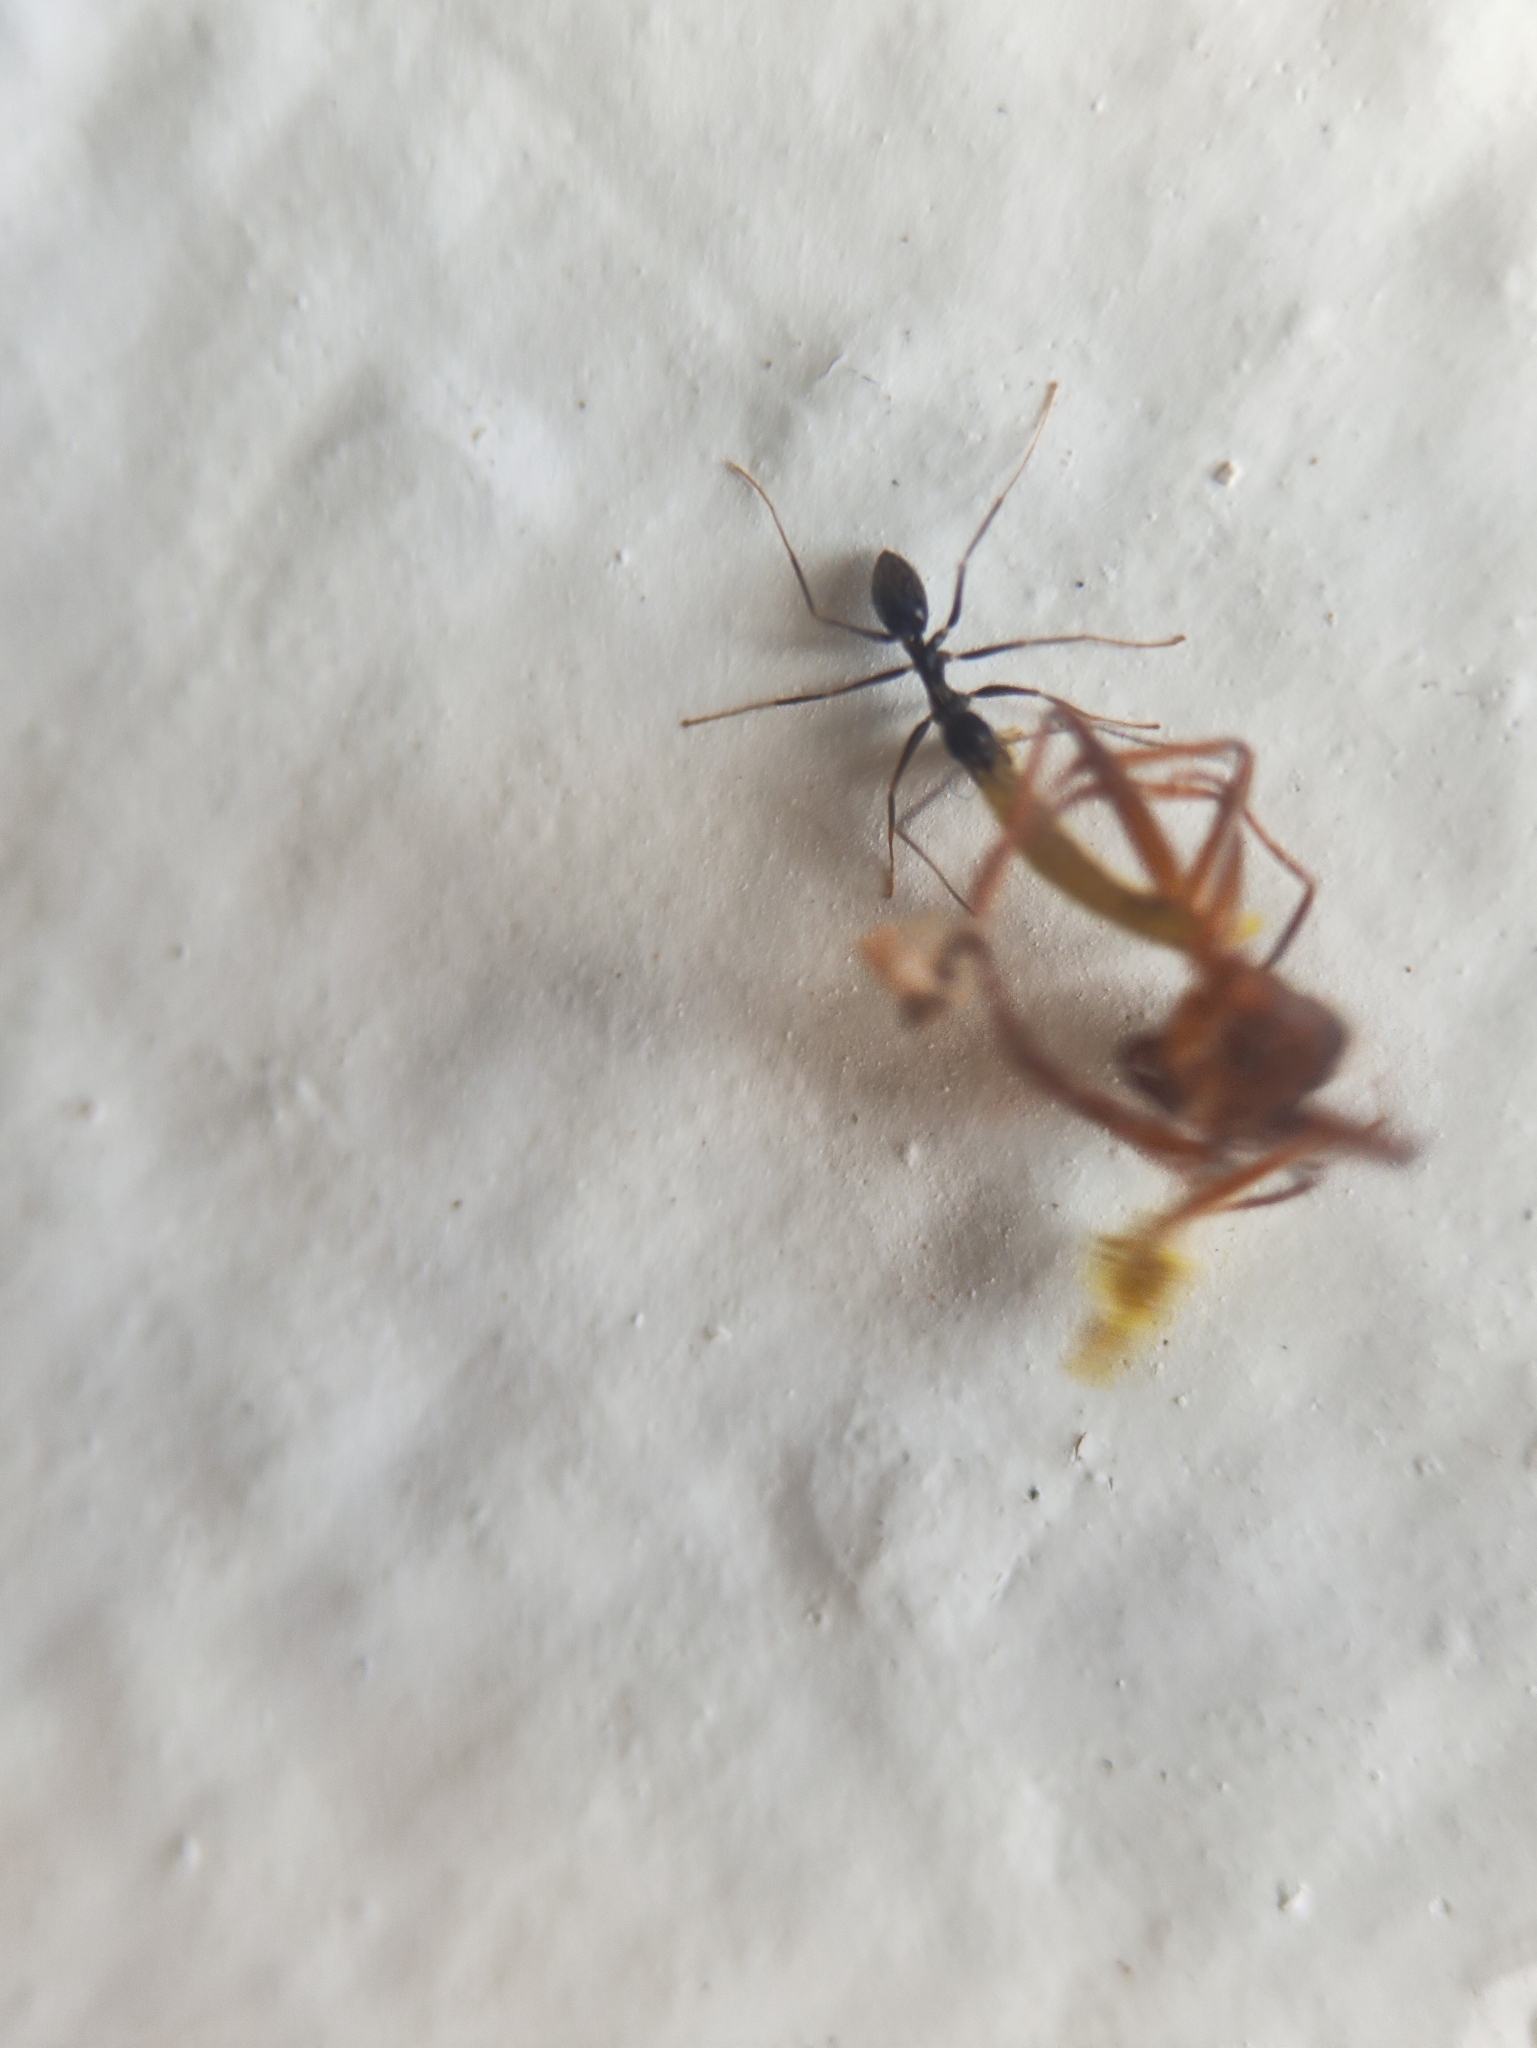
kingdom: Animalia
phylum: Arthropoda
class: Insecta
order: Hymenoptera
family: Formicidae
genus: Paratrechina
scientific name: Paratrechina longicornis
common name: Longhorned crazy ant
